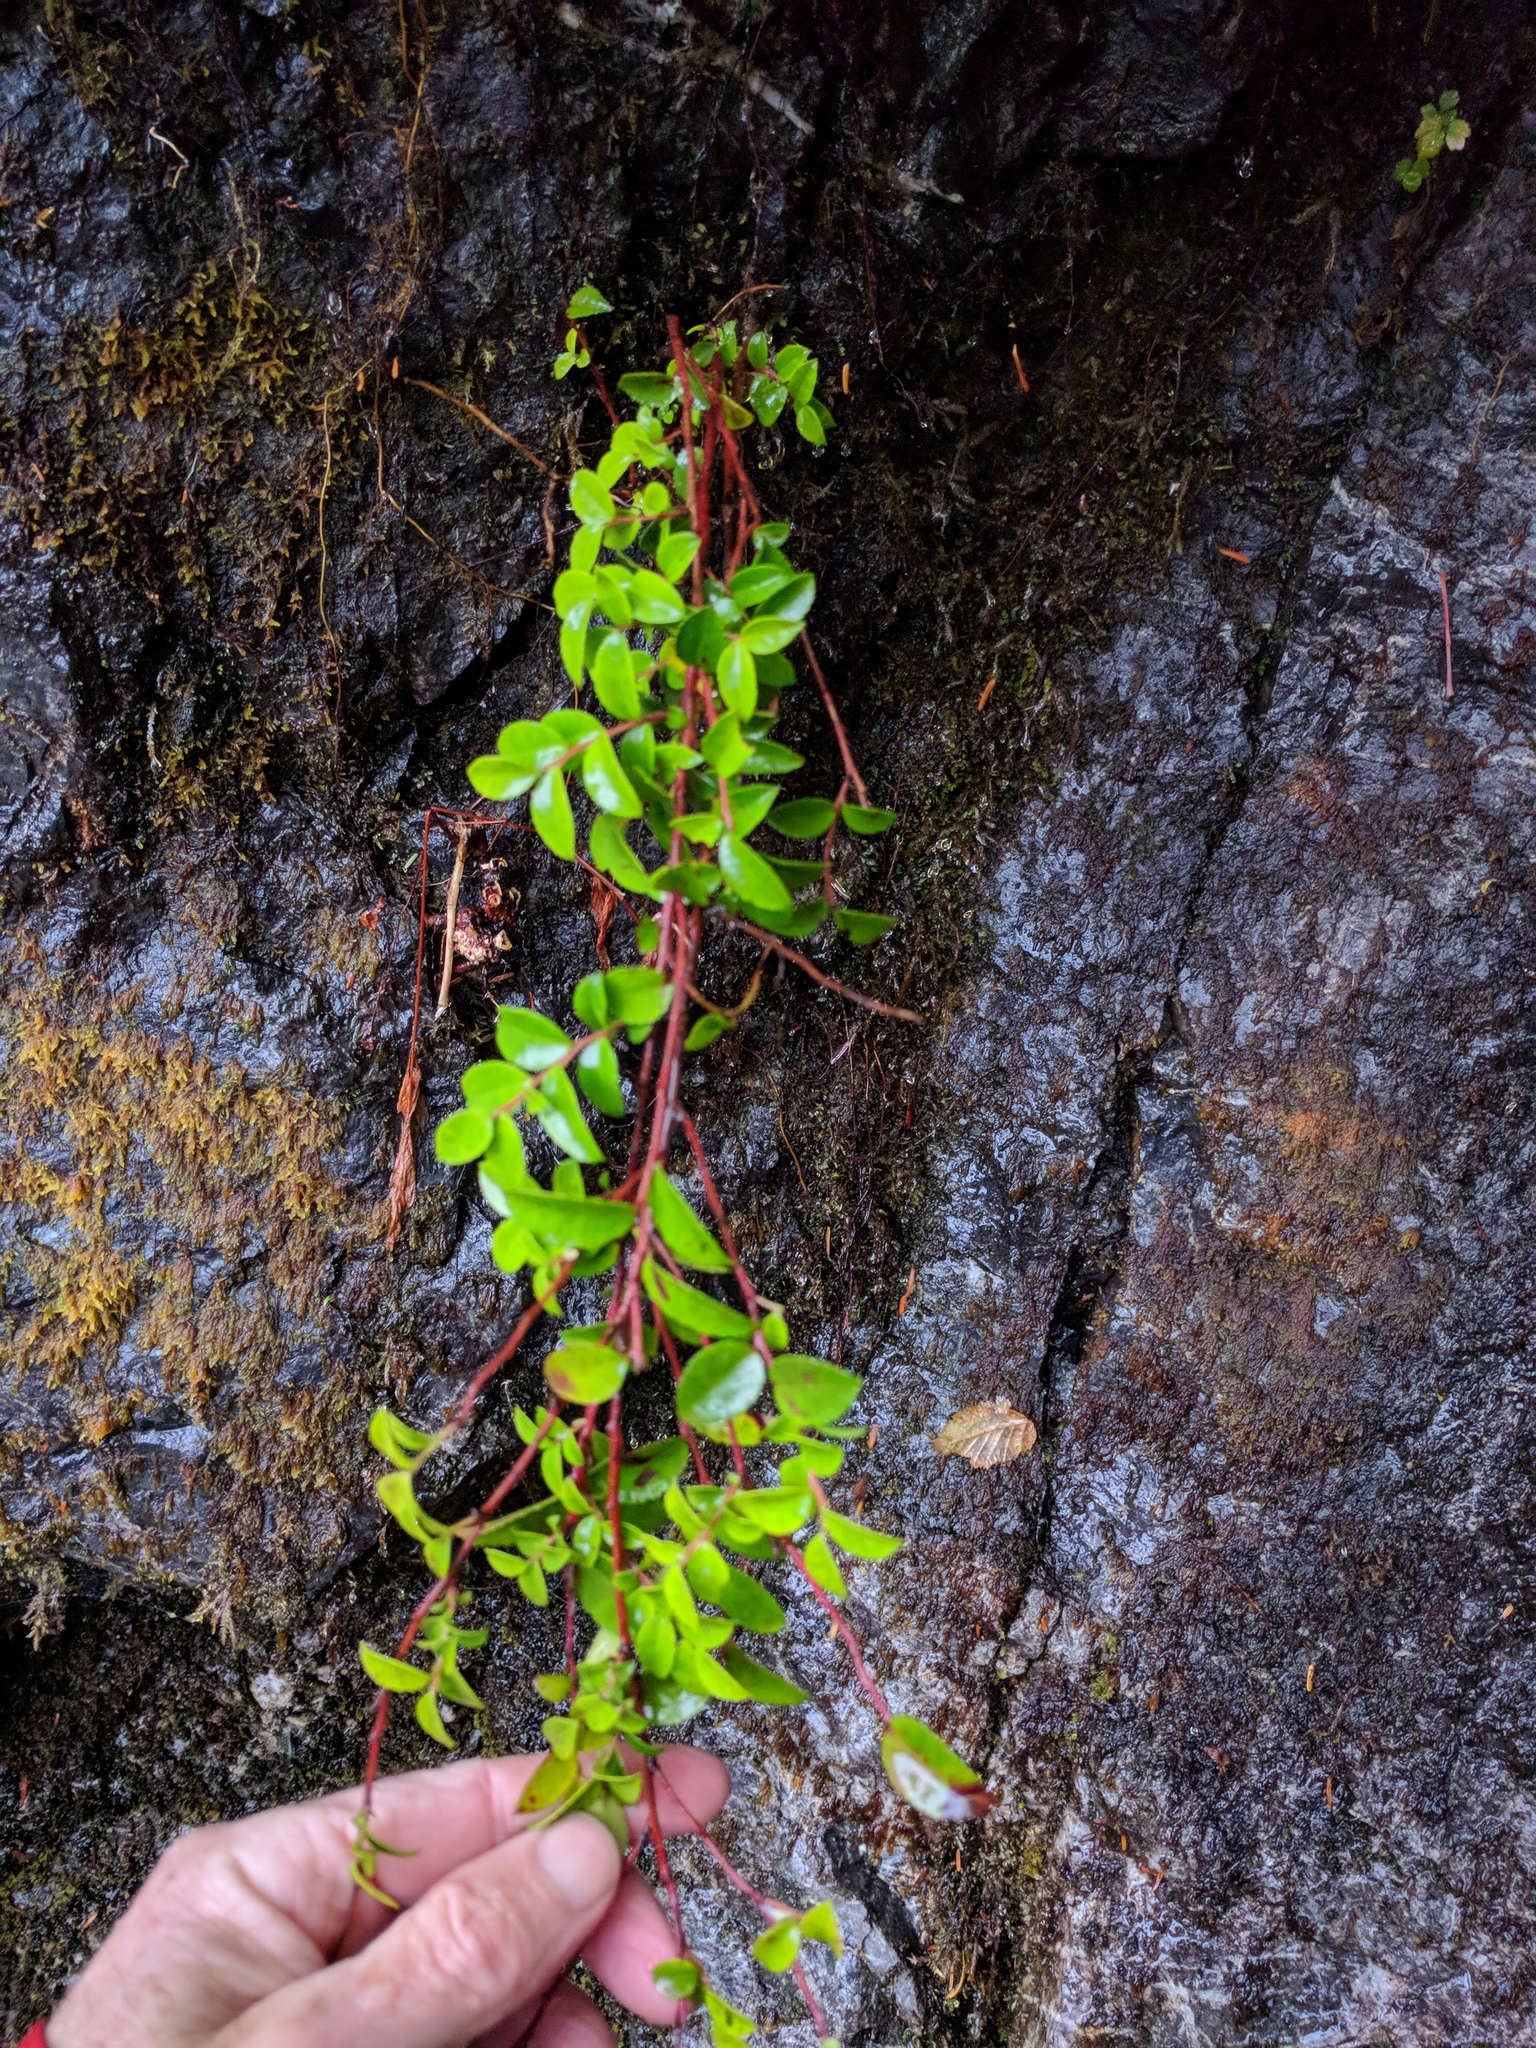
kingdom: Plantae
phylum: Tracheophyta
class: Magnoliopsida
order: Ericales
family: Ericaceae
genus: Vaccinium
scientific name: Vaccinium ovatum
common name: California-huckleberry
